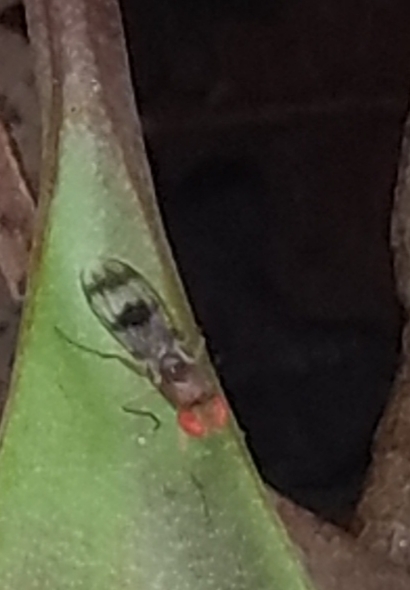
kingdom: Animalia
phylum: Arthropoda
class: Insecta
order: Diptera
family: Drosophilidae
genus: Chymomyza
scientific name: Chymomyza amoena
